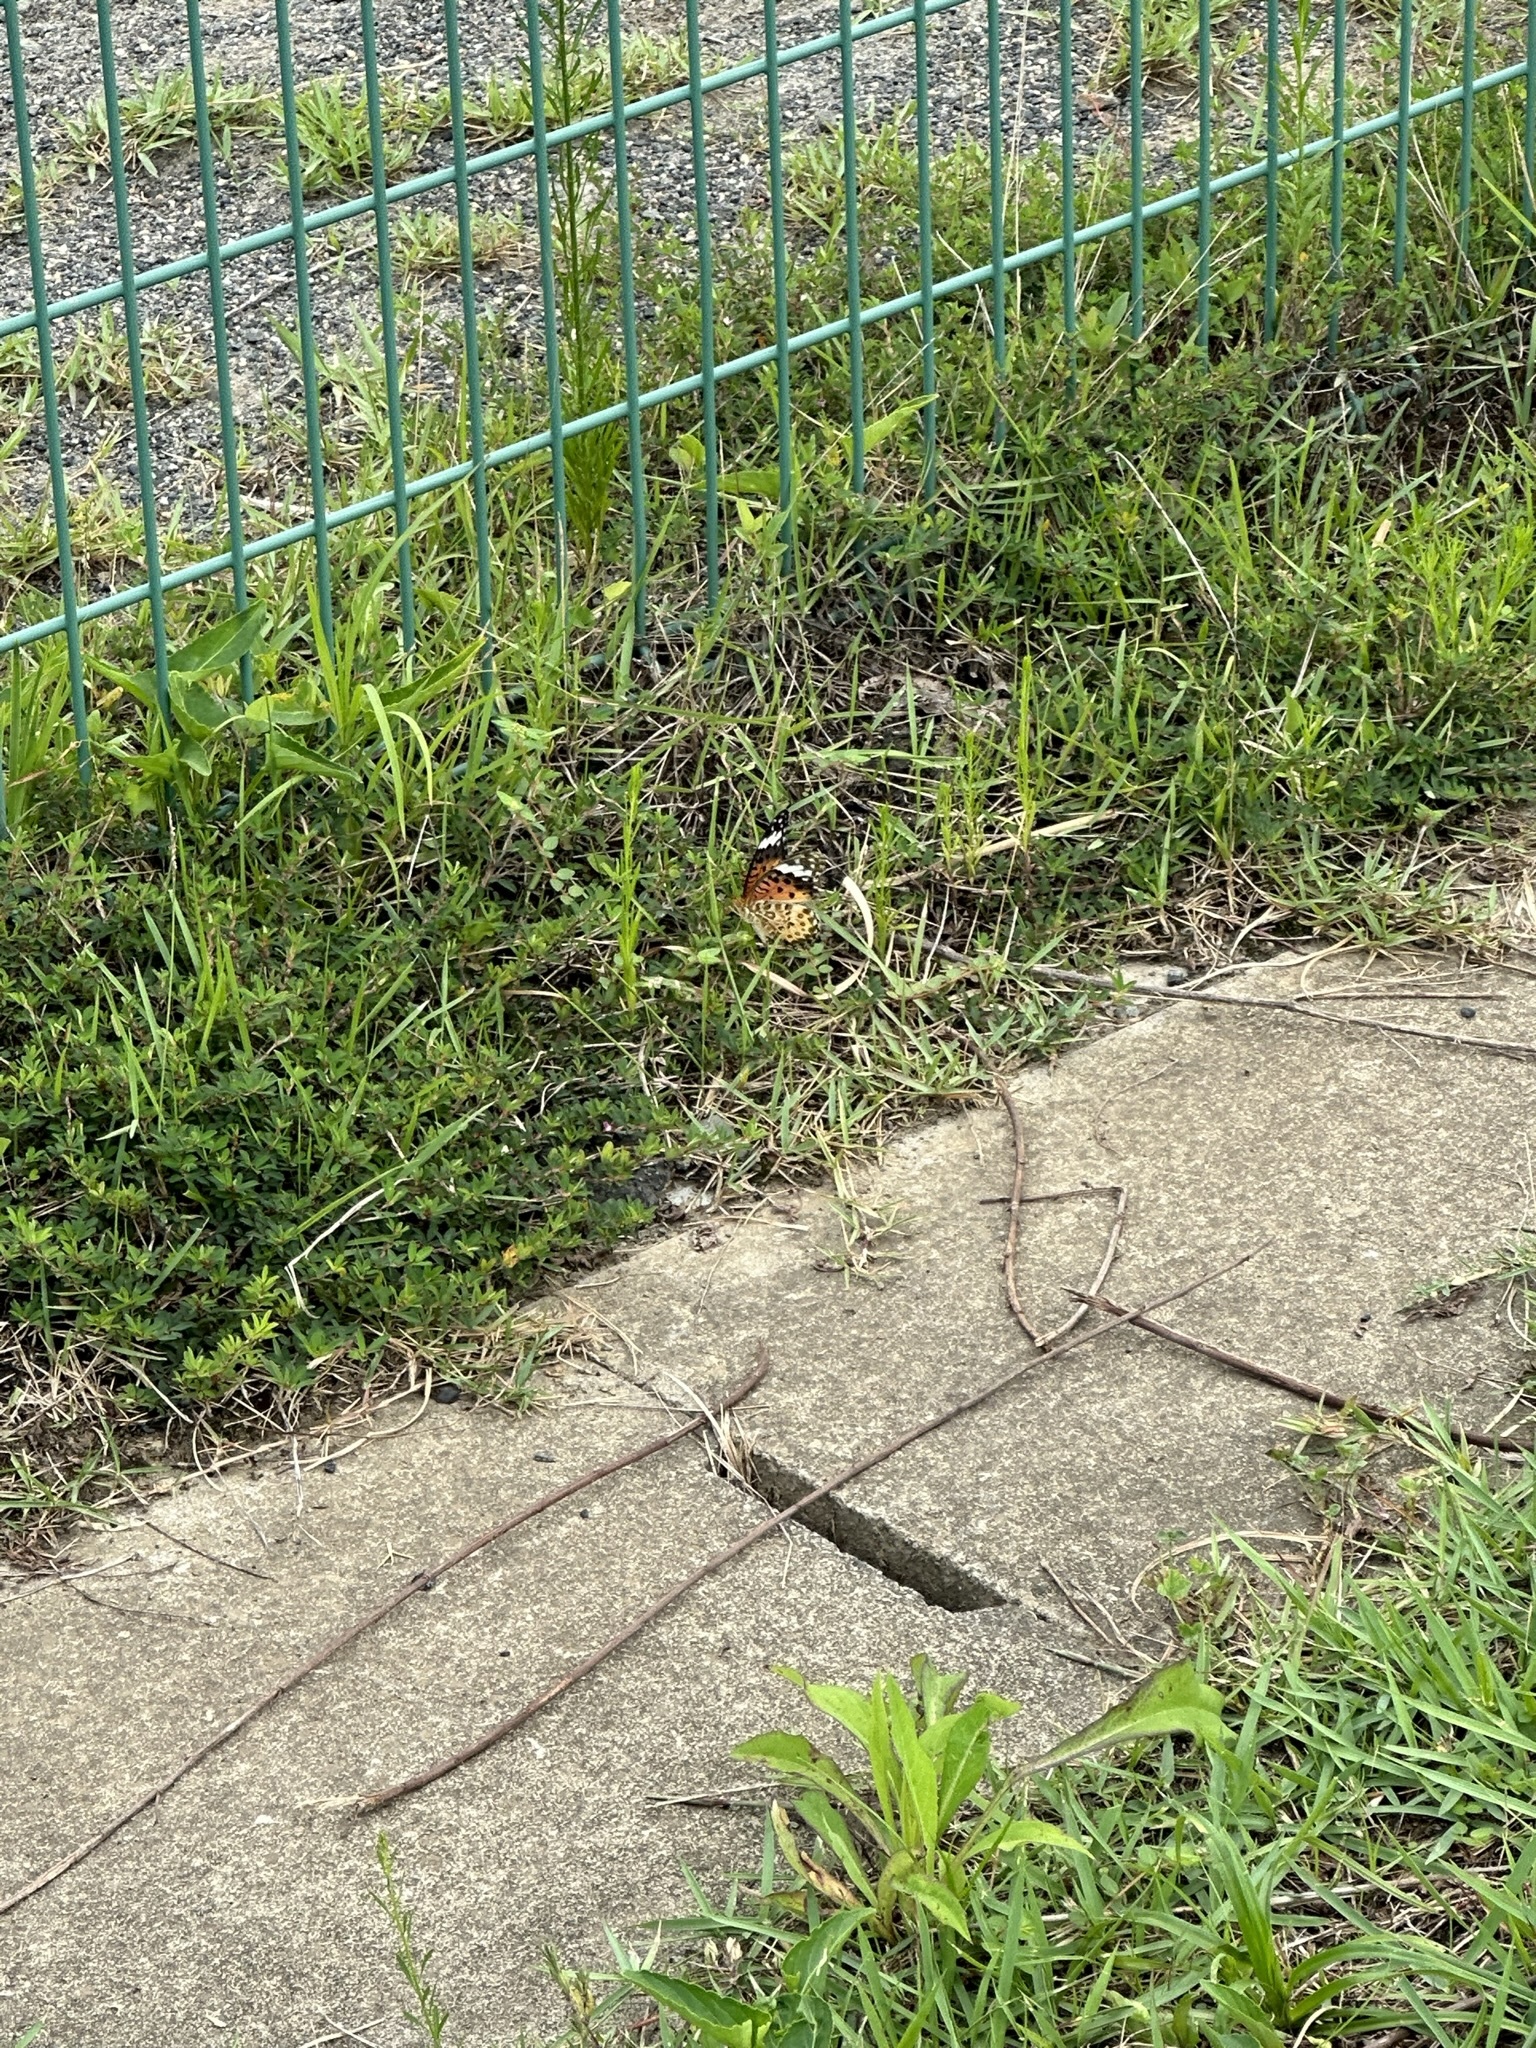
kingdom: Animalia
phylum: Arthropoda
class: Insecta
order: Lepidoptera
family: Nymphalidae
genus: Argynnis
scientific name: Argynnis hyperbius
